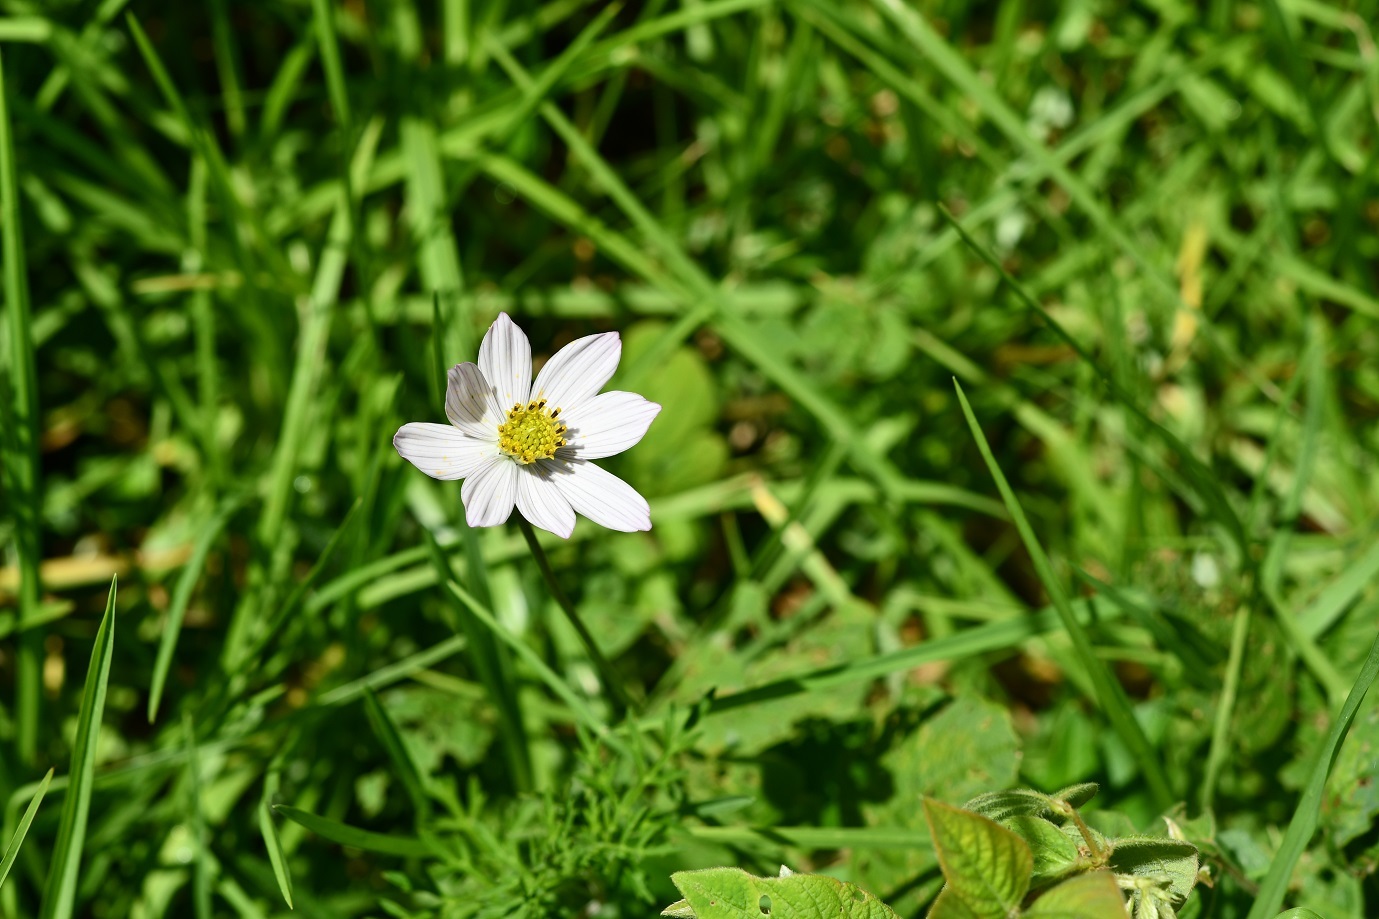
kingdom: Plantae
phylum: Tracheophyta
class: Magnoliopsida
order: Asterales
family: Asteraceae
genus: Cosmos
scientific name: Cosmos diversifolius
